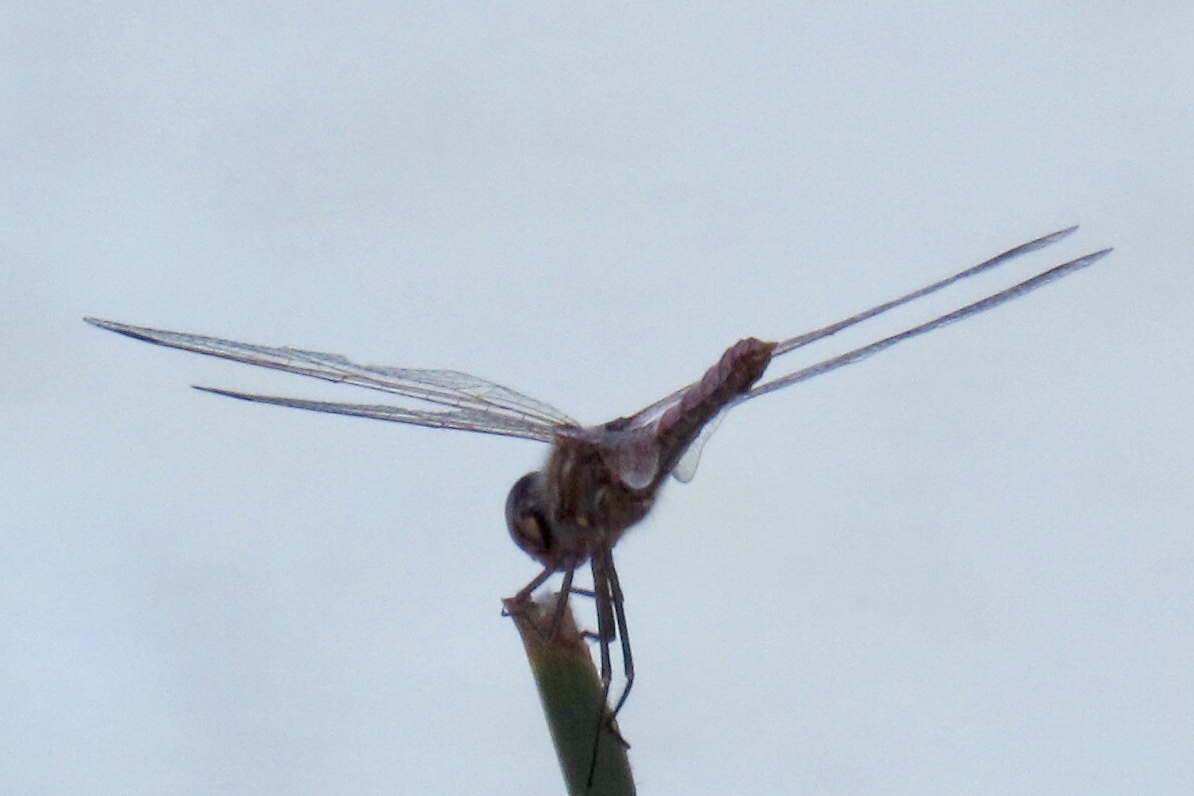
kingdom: Animalia
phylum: Arthropoda
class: Insecta
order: Odonata
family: Libellulidae
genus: Sympetrum
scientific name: Sympetrum corruptum
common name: Variegated meadowhawk
